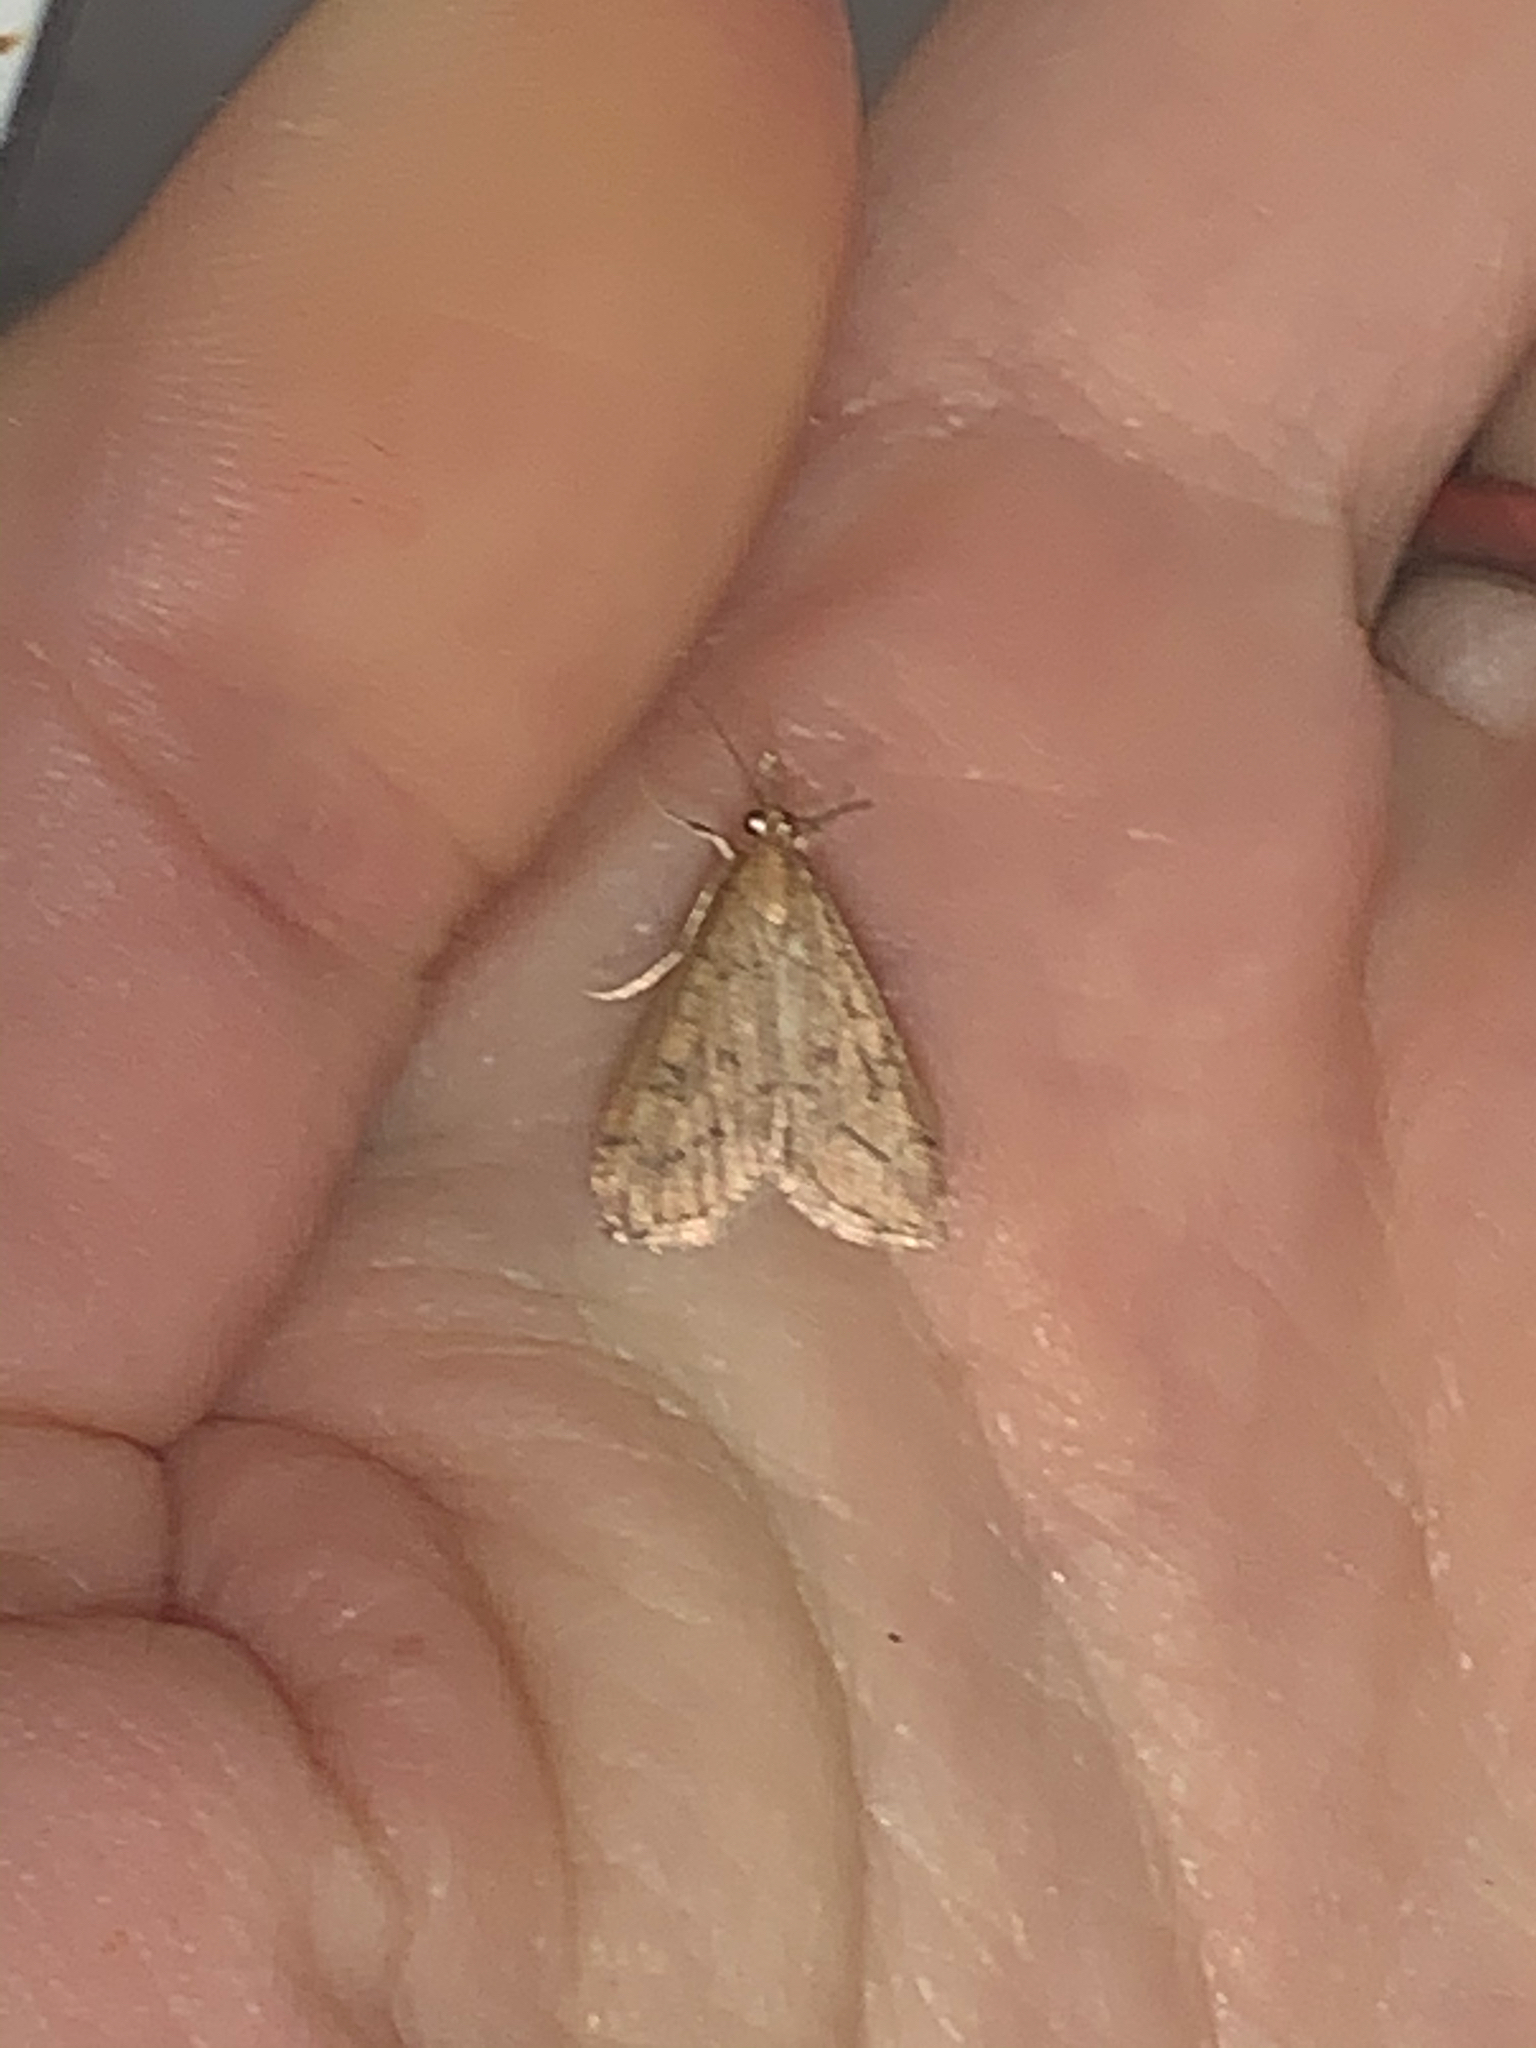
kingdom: Animalia
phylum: Arthropoda
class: Insecta
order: Lepidoptera
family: Crambidae
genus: Udea
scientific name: Udea rubigalis
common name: Celery leaftier moth
